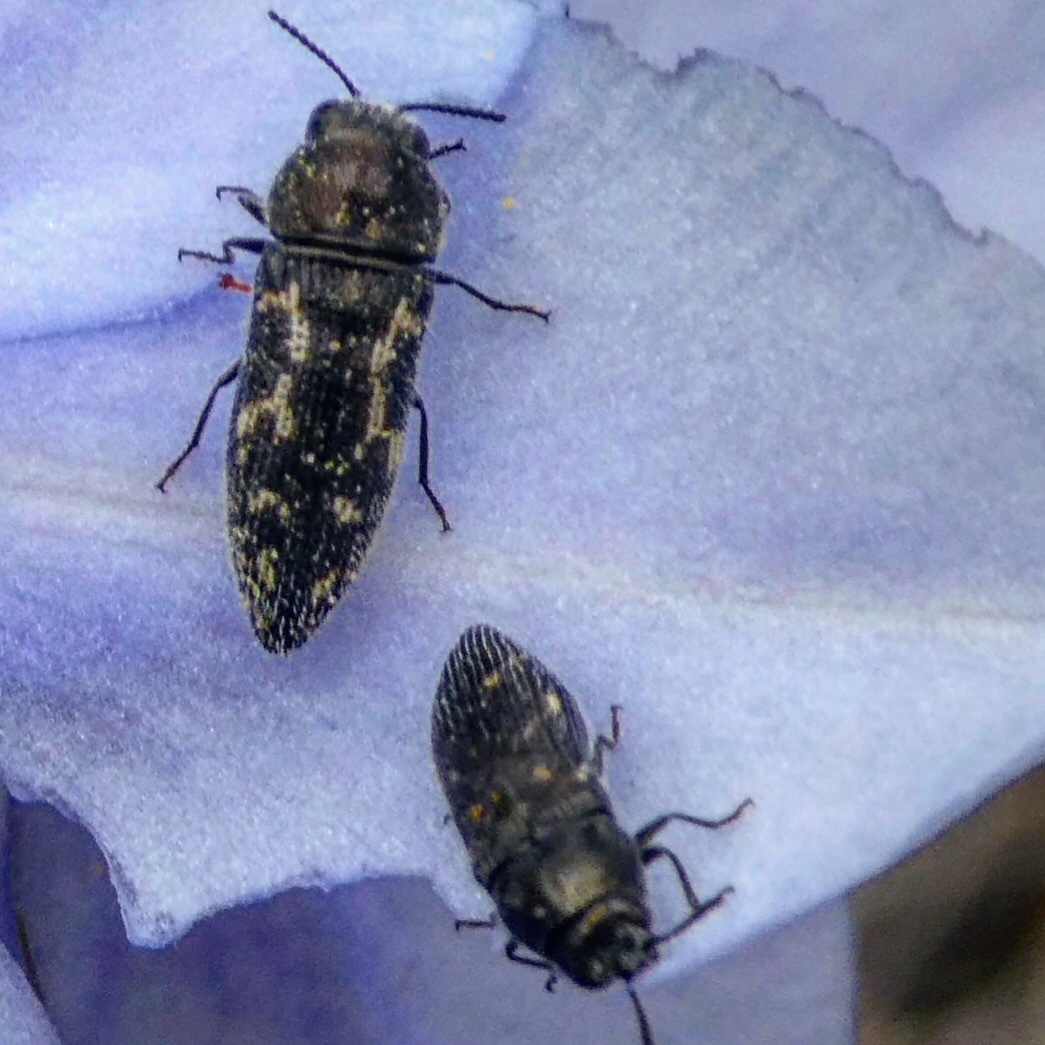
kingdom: Animalia
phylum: Arthropoda
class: Insecta
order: Coleoptera
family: Buprestidae
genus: Acmaeodera
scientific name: Acmaeodera neglecta
